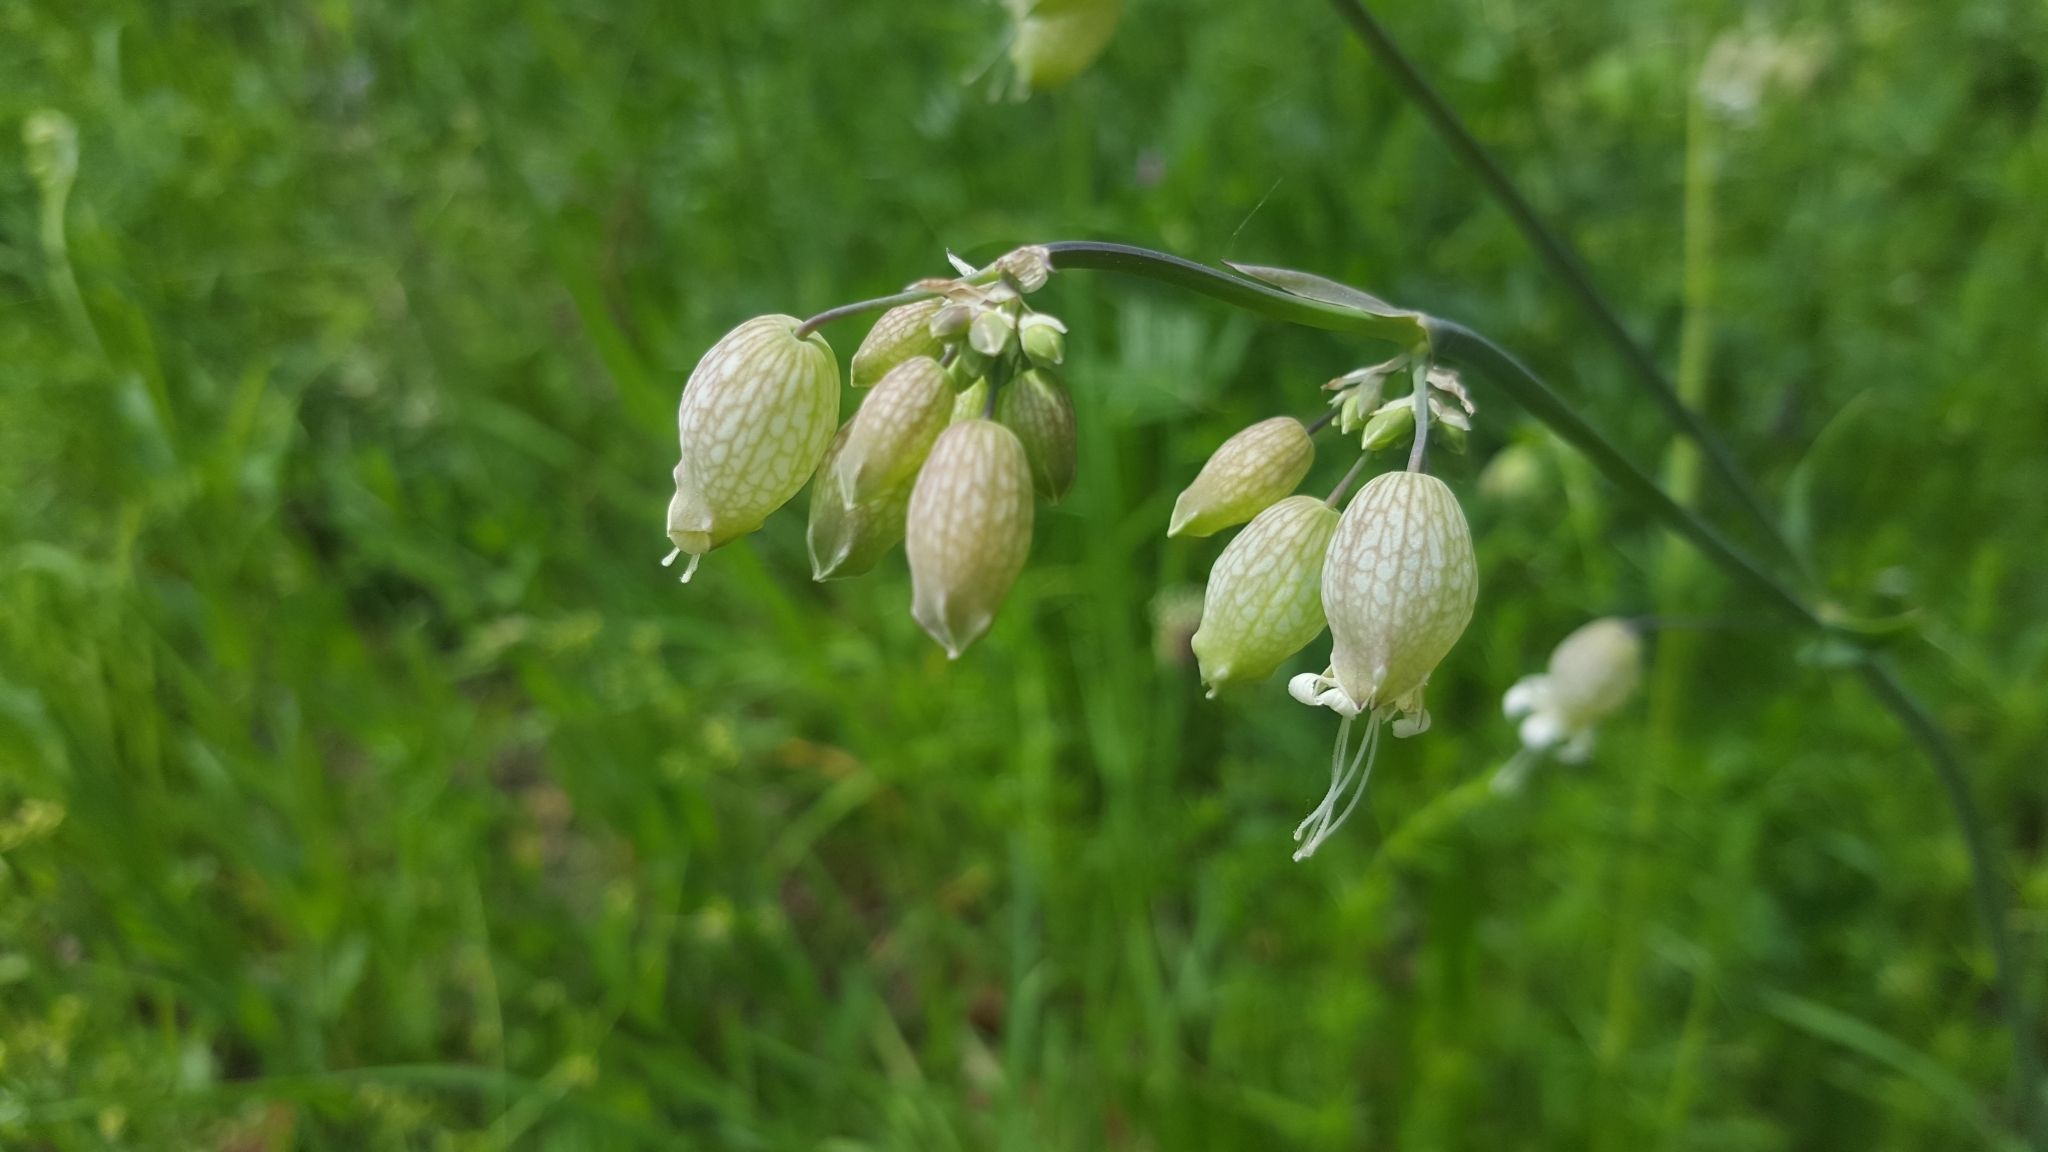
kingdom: Plantae
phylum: Tracheophyta
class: Magnoliopsida
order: Caryophyllales
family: Caryophyllaceae
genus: Silene
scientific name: Silene vulgaris
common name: Bladder campion
